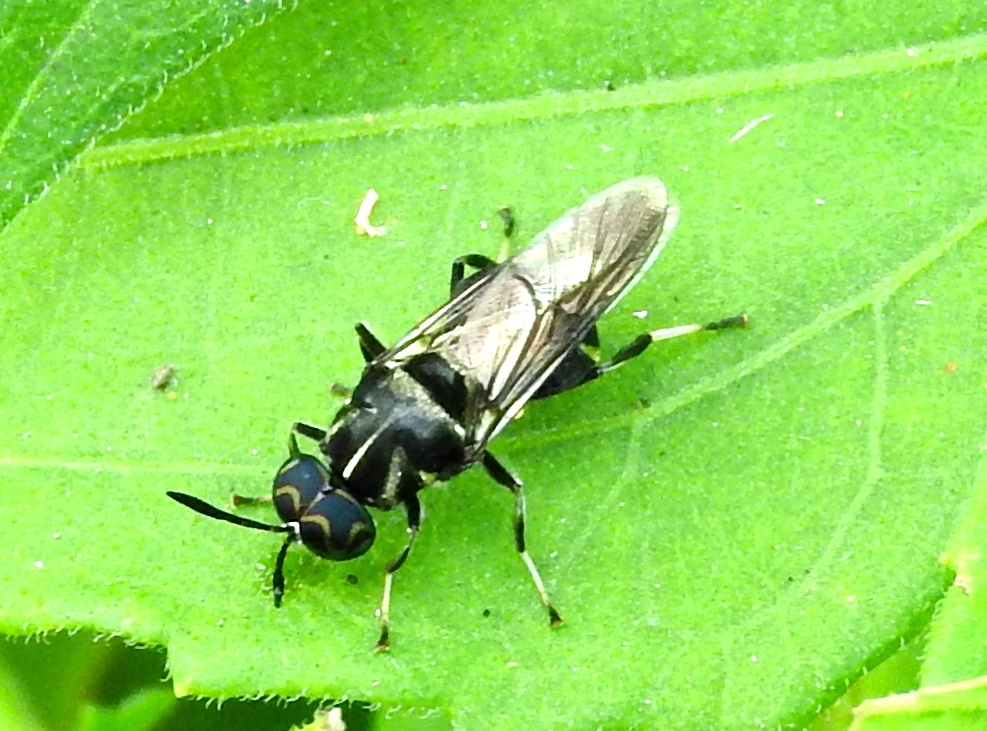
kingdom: Animalia
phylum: Arthropoda
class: Insecta
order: Diptera
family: Stratiomyidae
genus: Cyphomyia
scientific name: Cyphomyia
